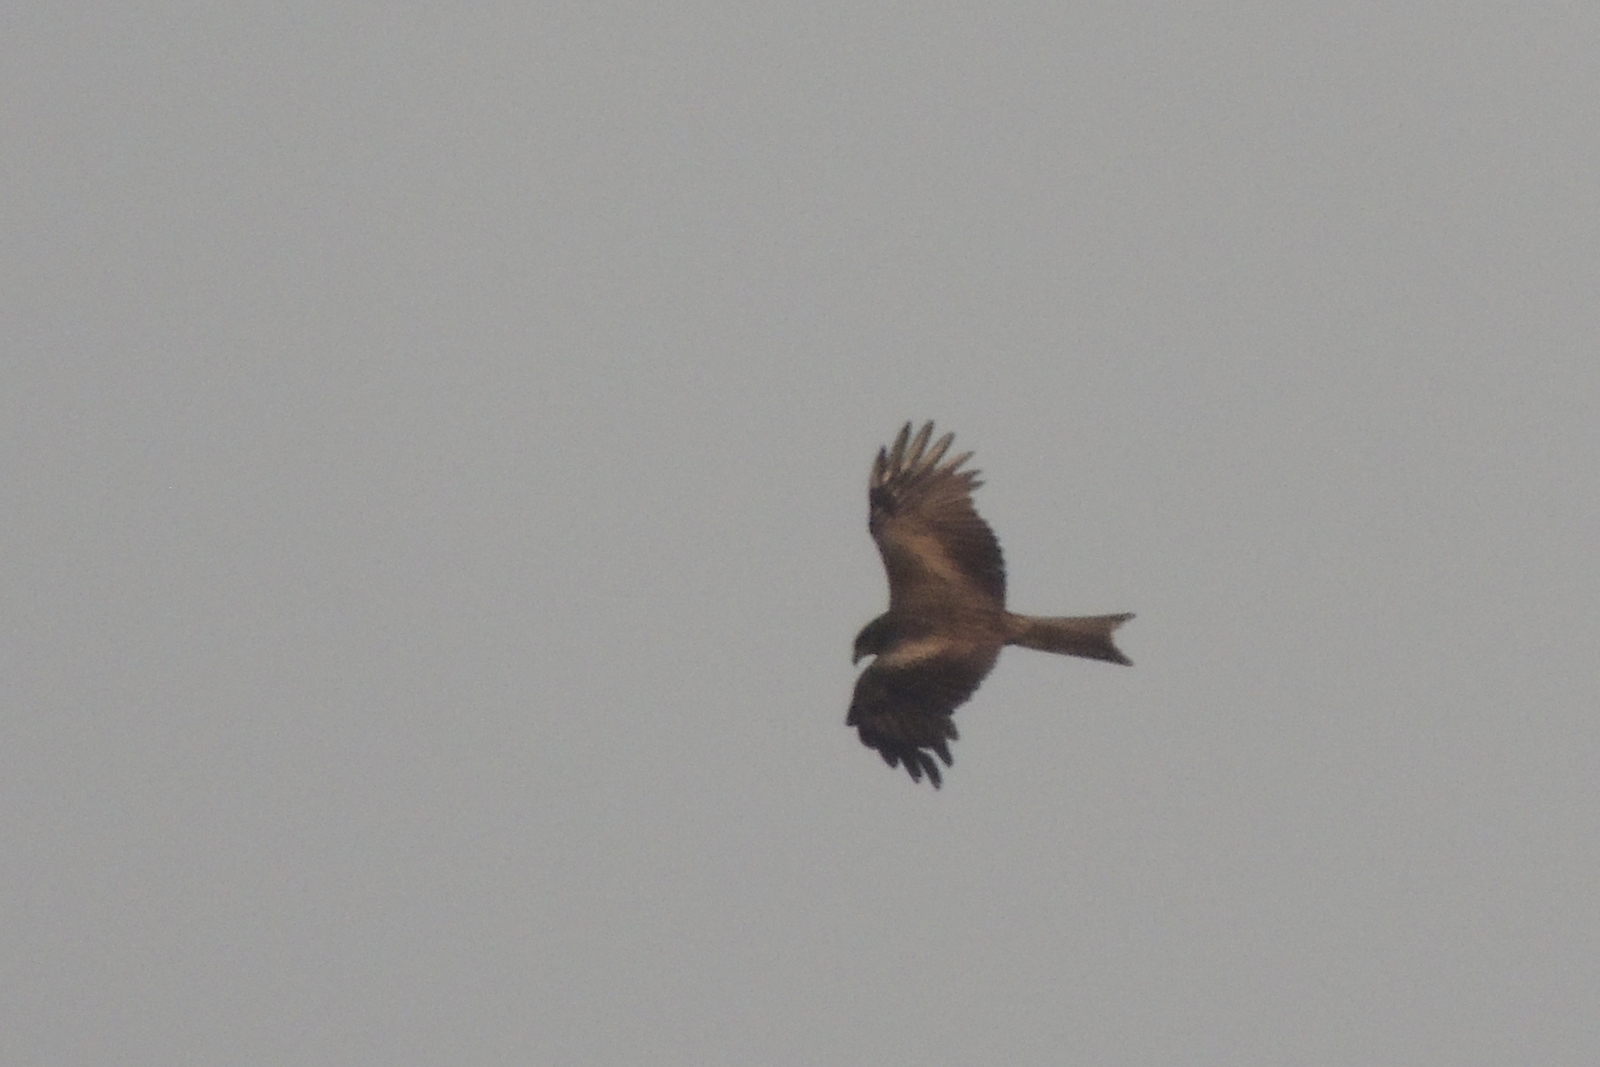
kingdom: Animalia
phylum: Chordata
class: Aves
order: Accipitriformes
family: Accipitridae
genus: Milvus
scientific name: Milvus migrans
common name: Black kite
